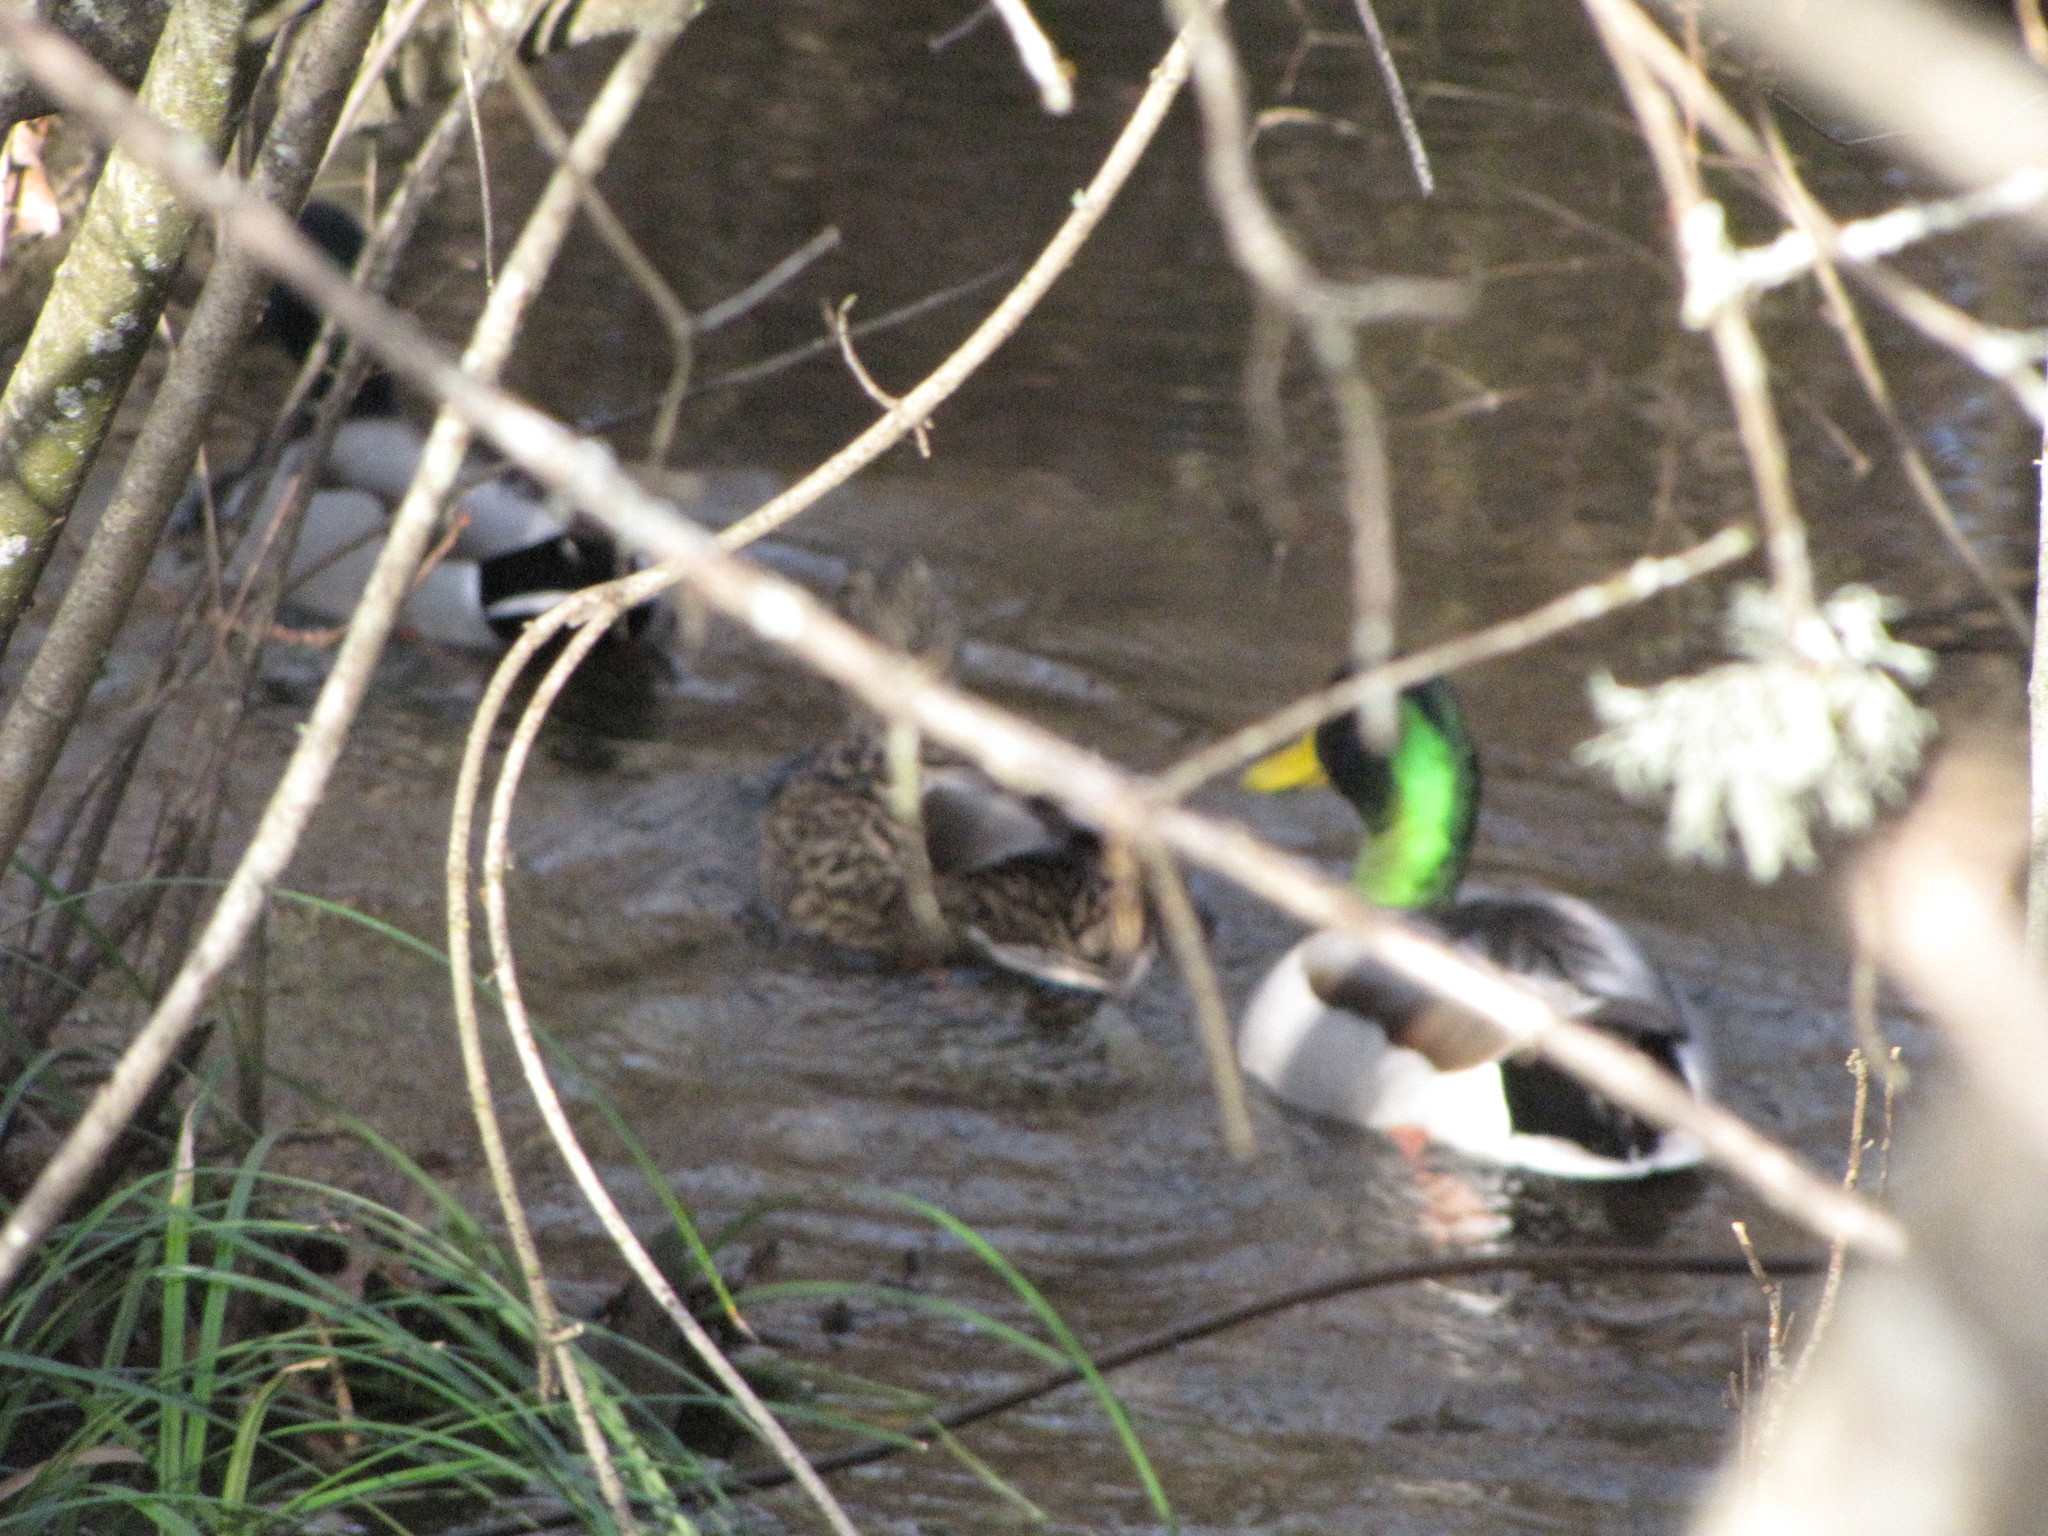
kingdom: Animalia
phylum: Chordata
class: Aves
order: Anseriformes
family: Anatidae
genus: Anas
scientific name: Anas platyrhynchos
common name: Mallard
